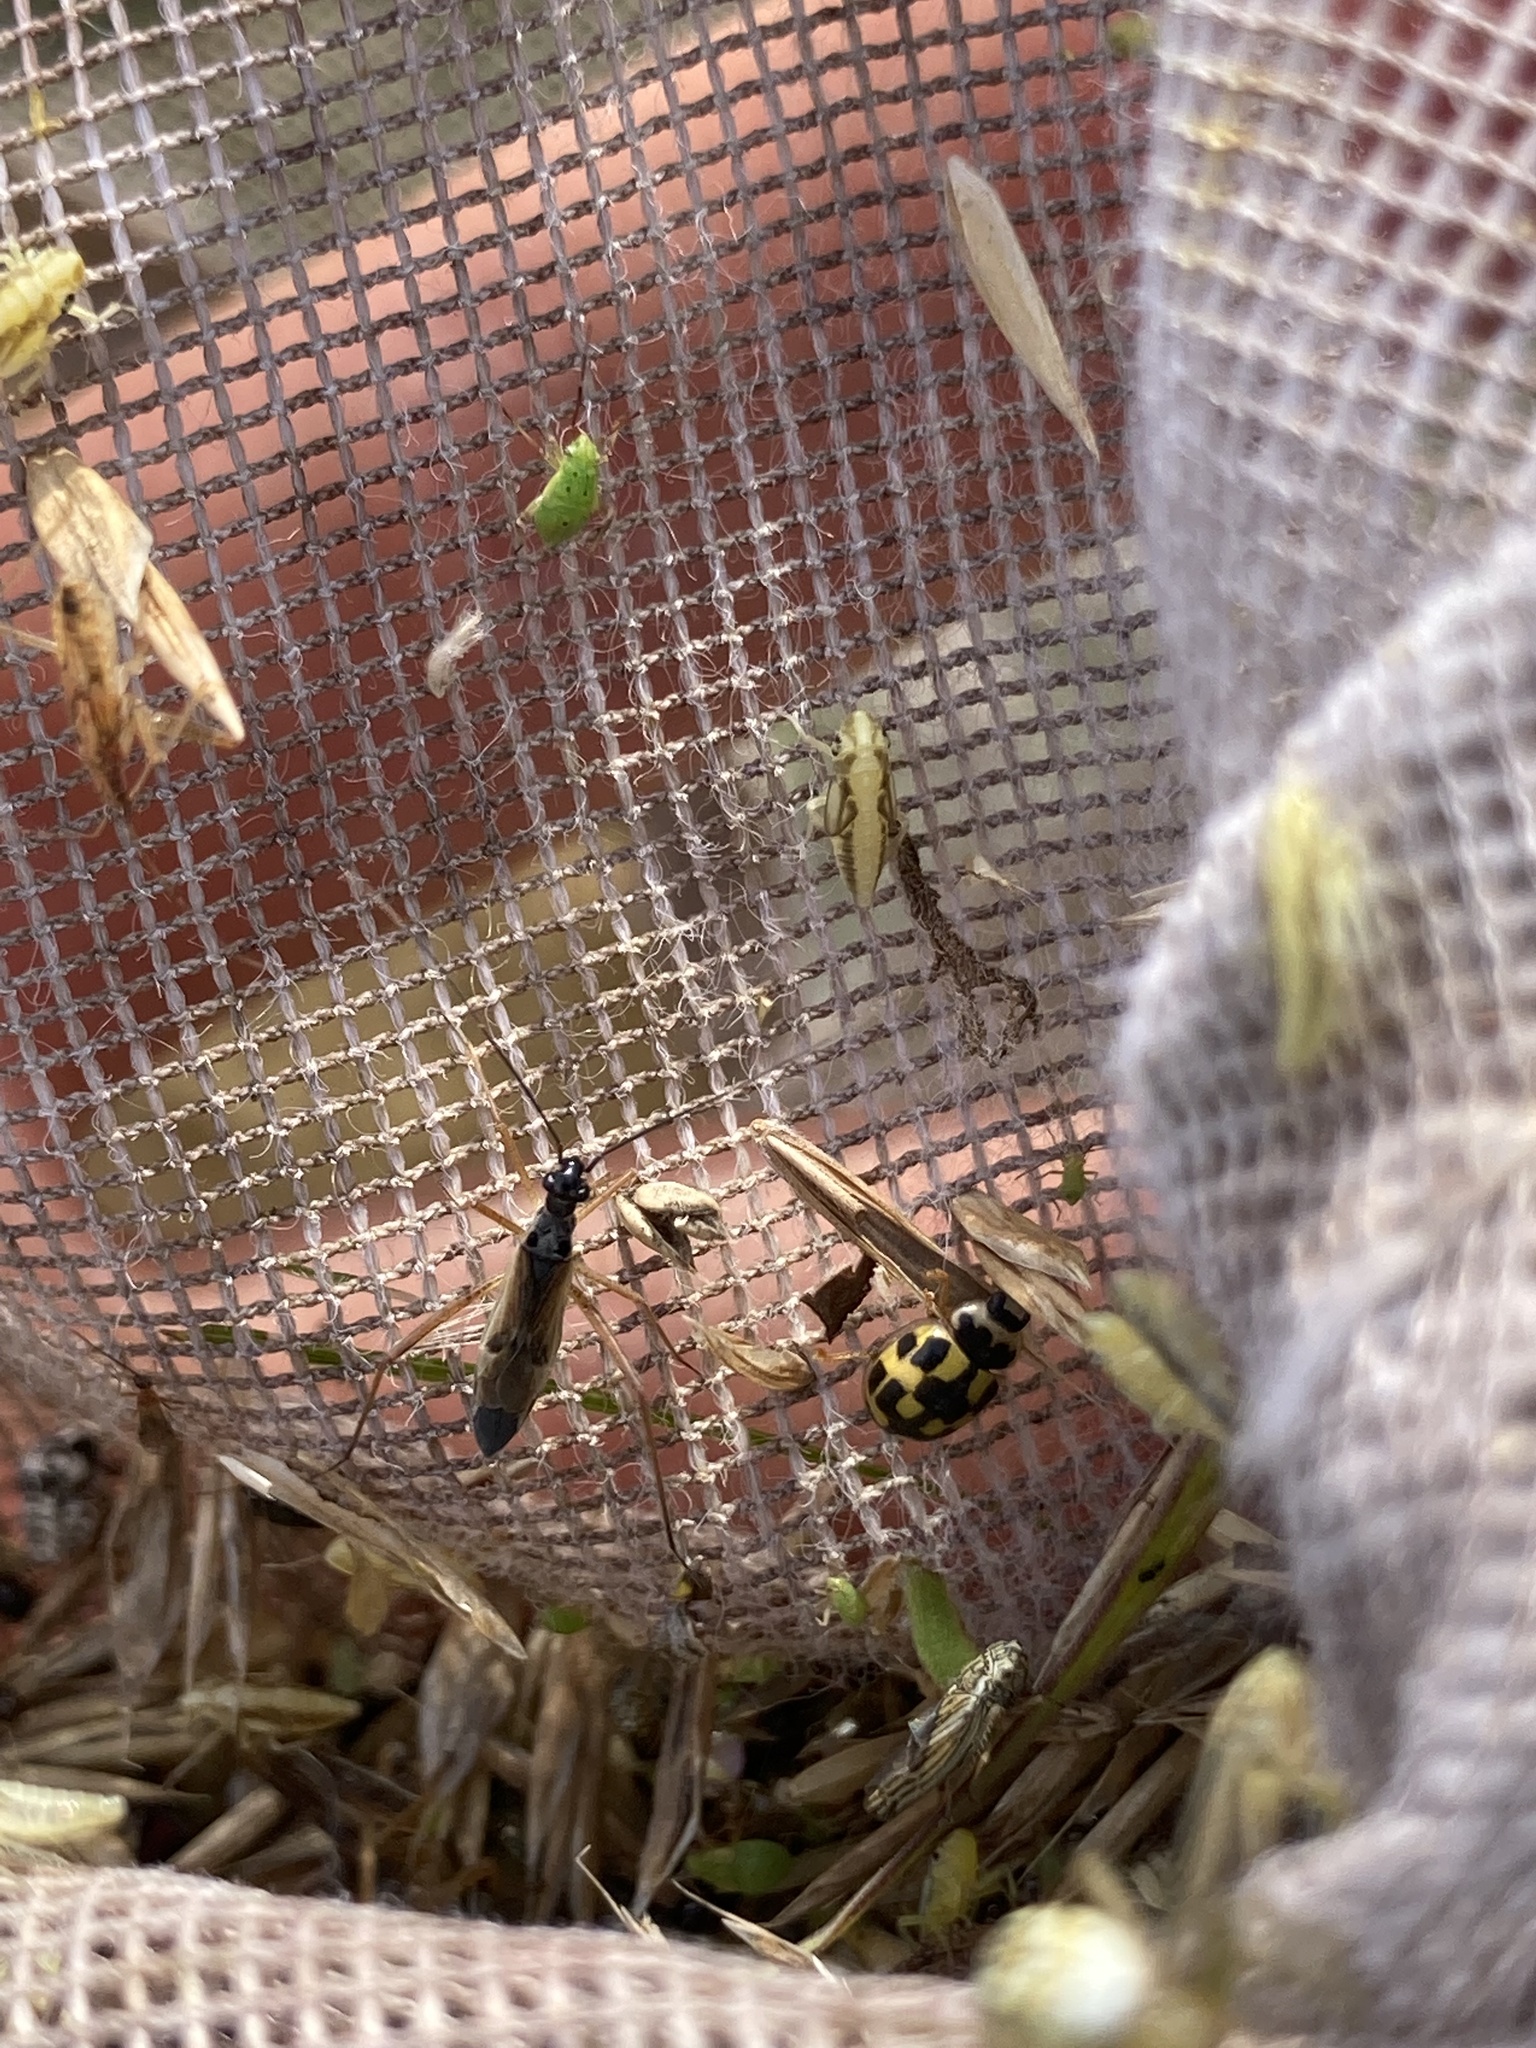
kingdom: Animalia
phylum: Arthropoda
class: Insecta
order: Coleoptera
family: Coccinellidae
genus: Propylaea
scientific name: Propylaea quatuordecimpunctata
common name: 14-spotted ladybird beetle
